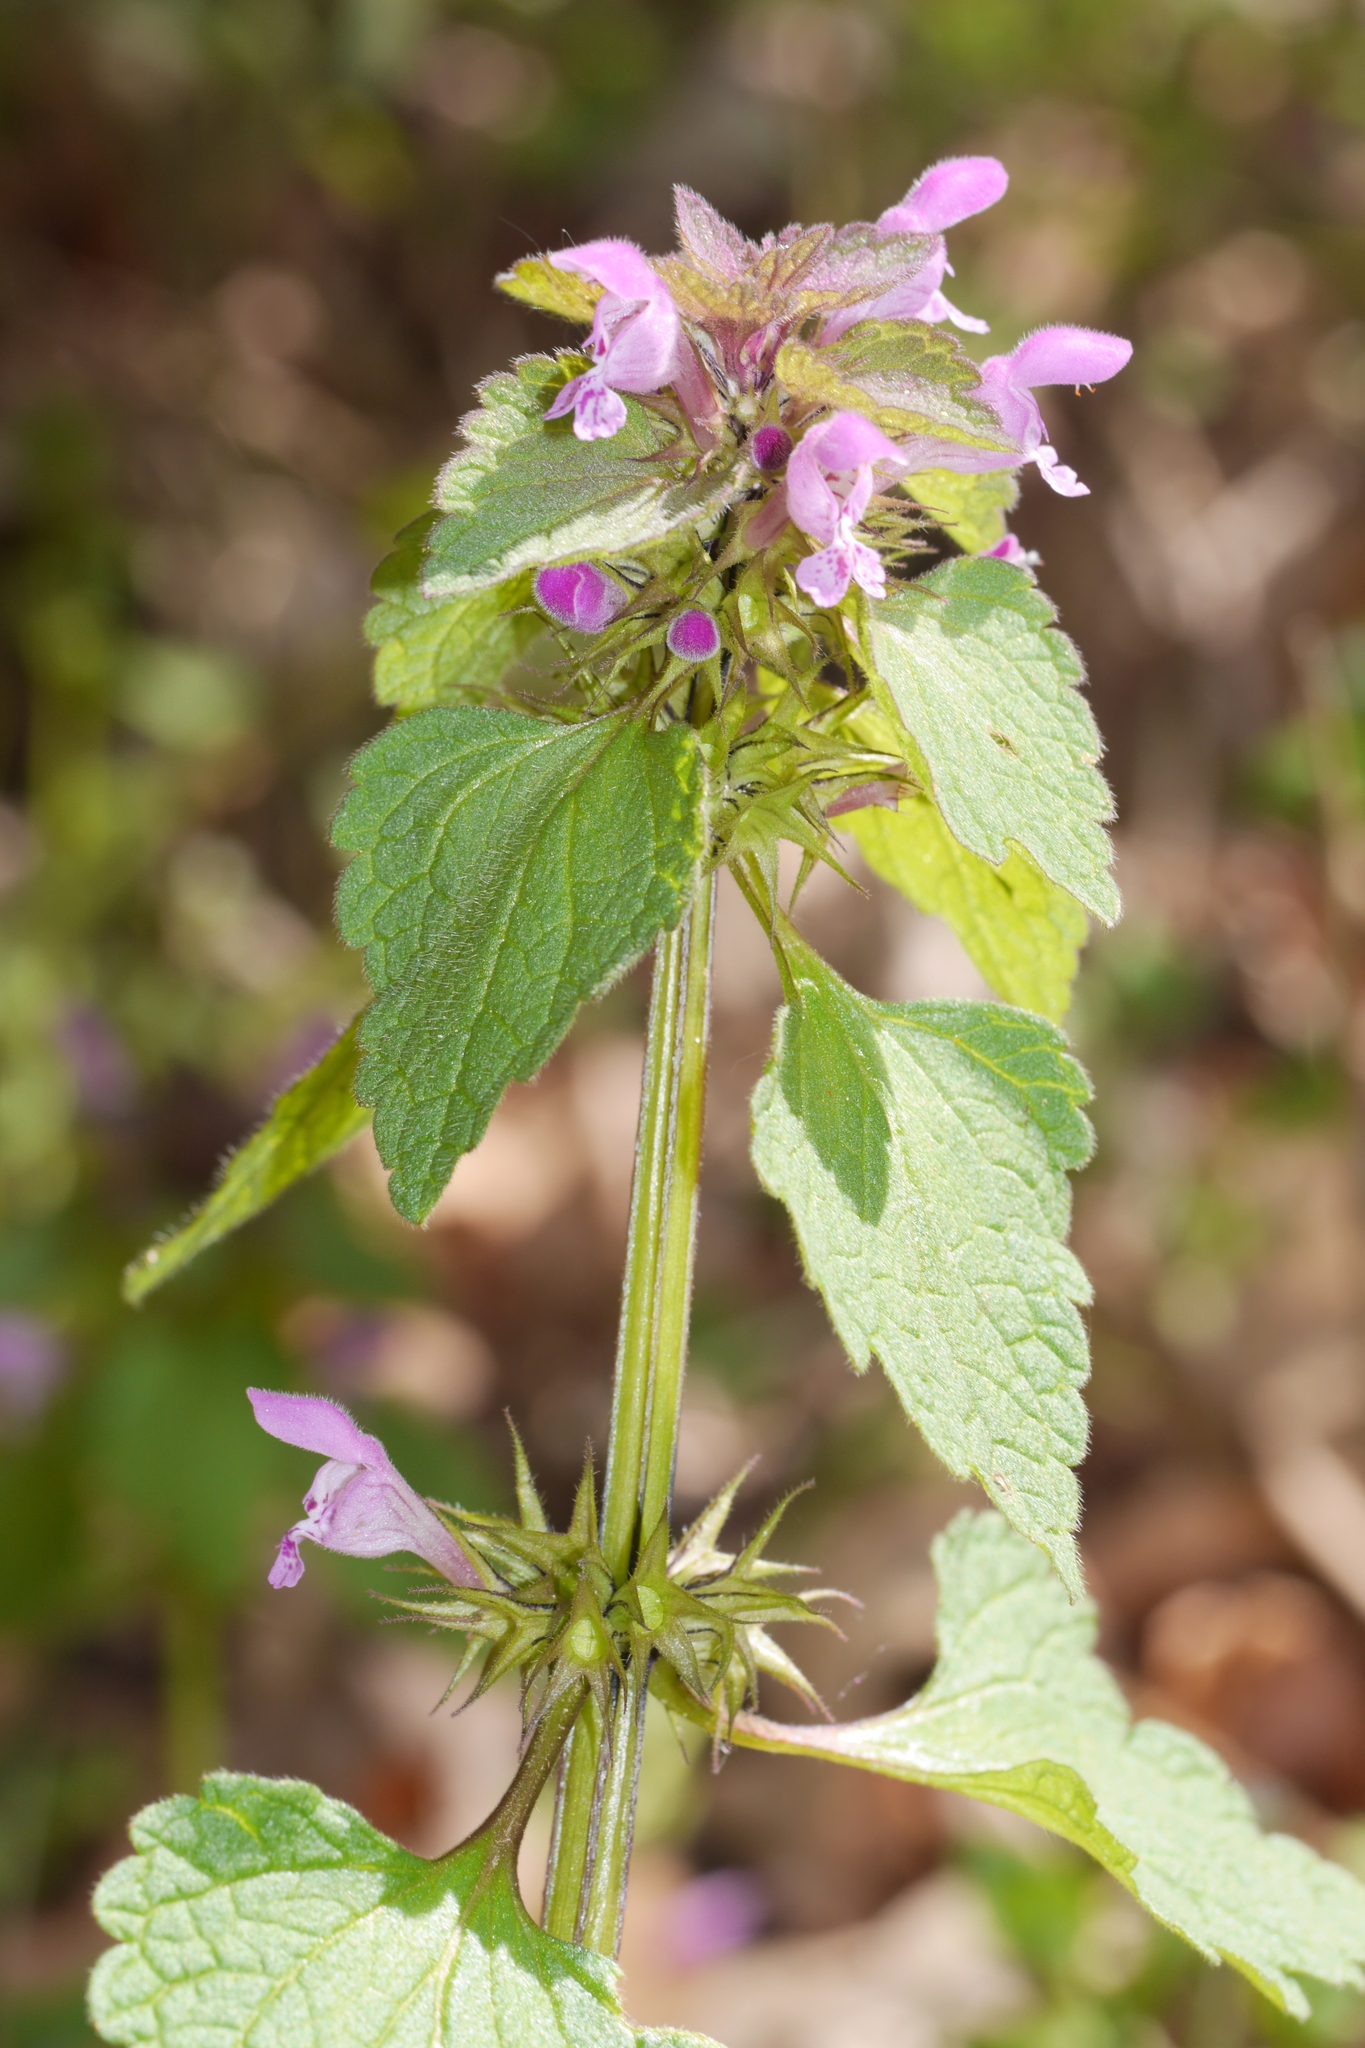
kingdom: Plantae
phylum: Tracheophyta
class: Magnoliopsida
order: Lamiales
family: Lamiaceae
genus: Lamium
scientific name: Lamium purpureum
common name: Red dead-nettle
